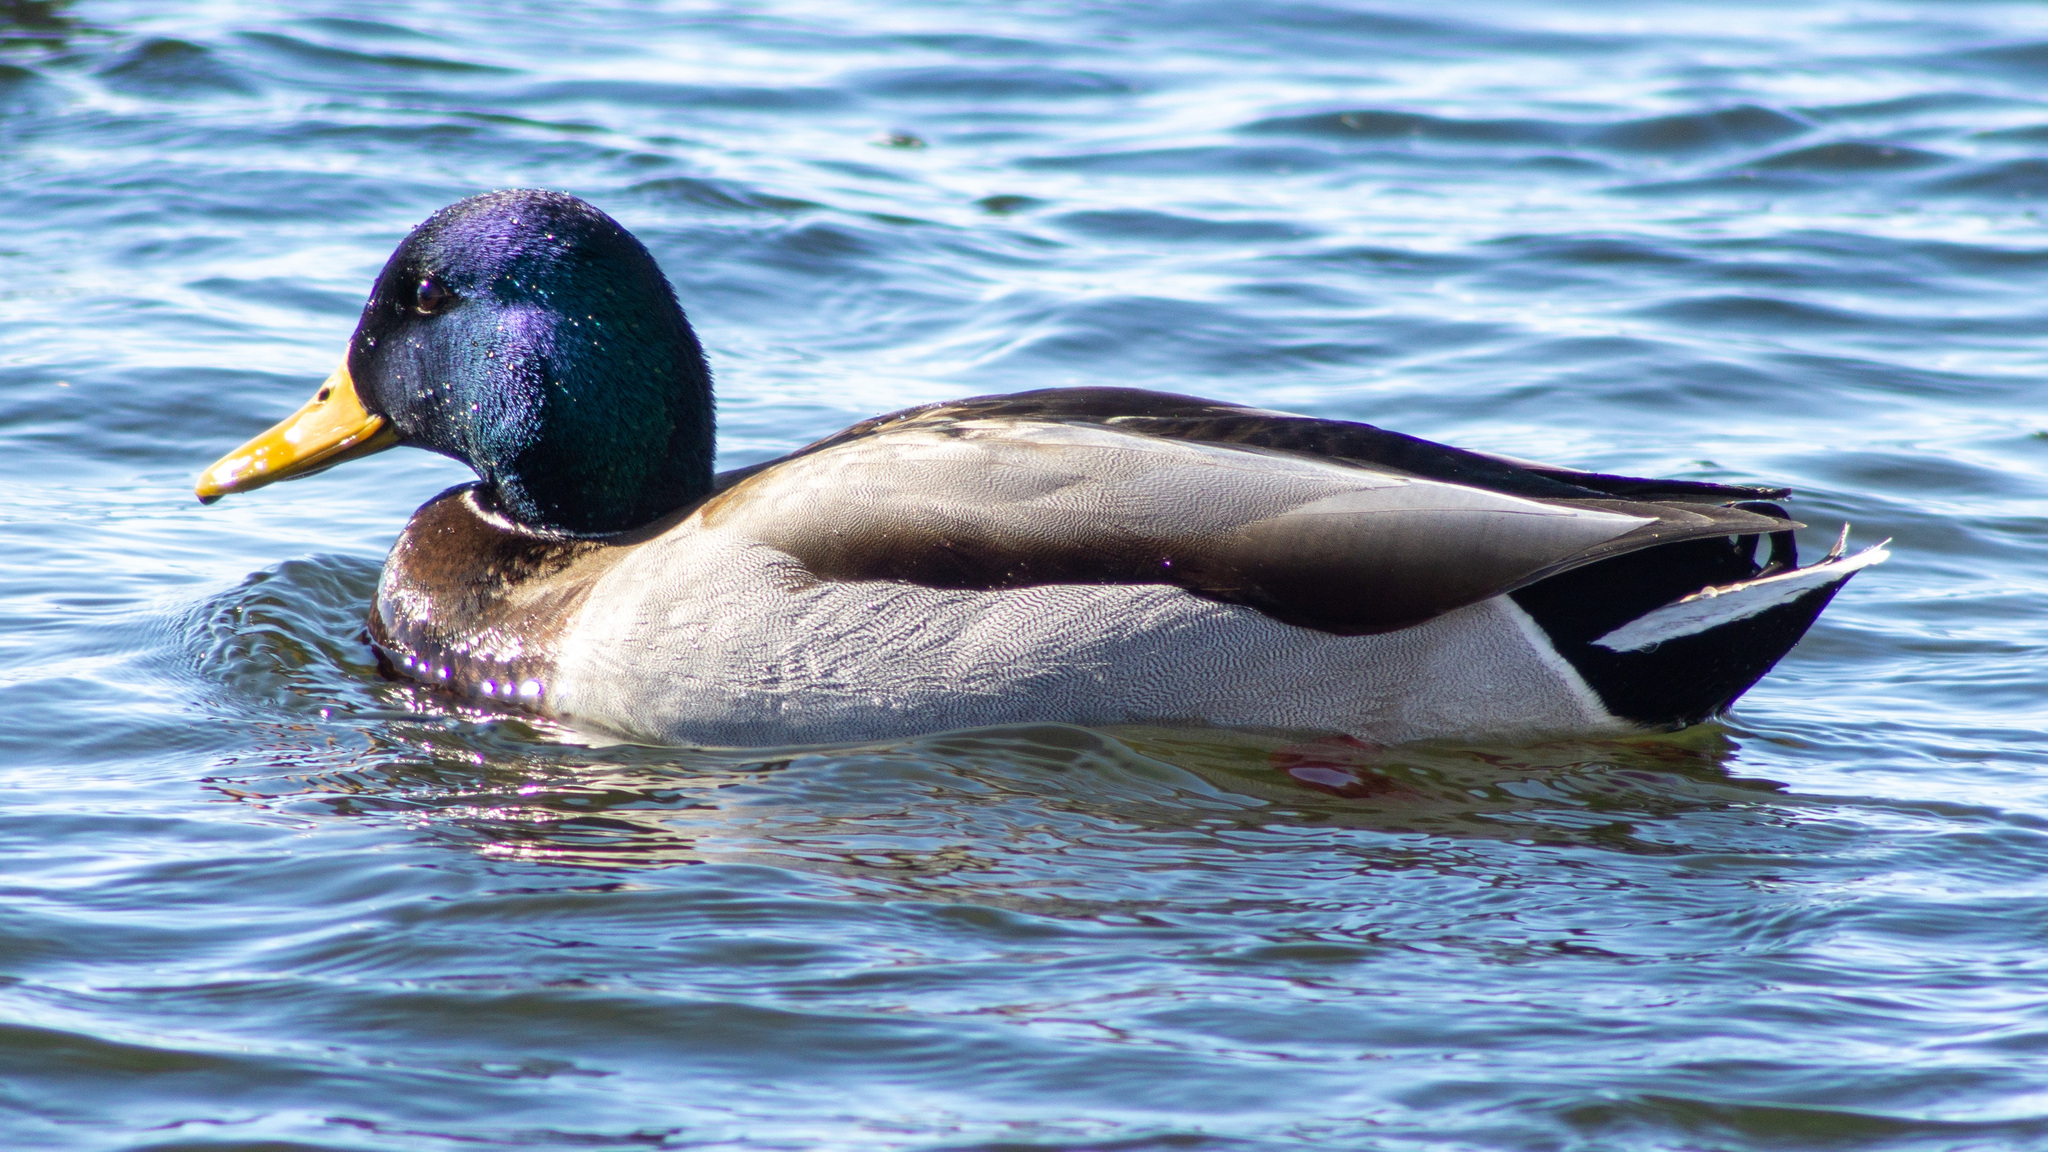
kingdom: Animalia
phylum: Chordata
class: Aves
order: Anseriformes
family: Anatidae
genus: Anas
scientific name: Anas platyrhynchos
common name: Mallard
